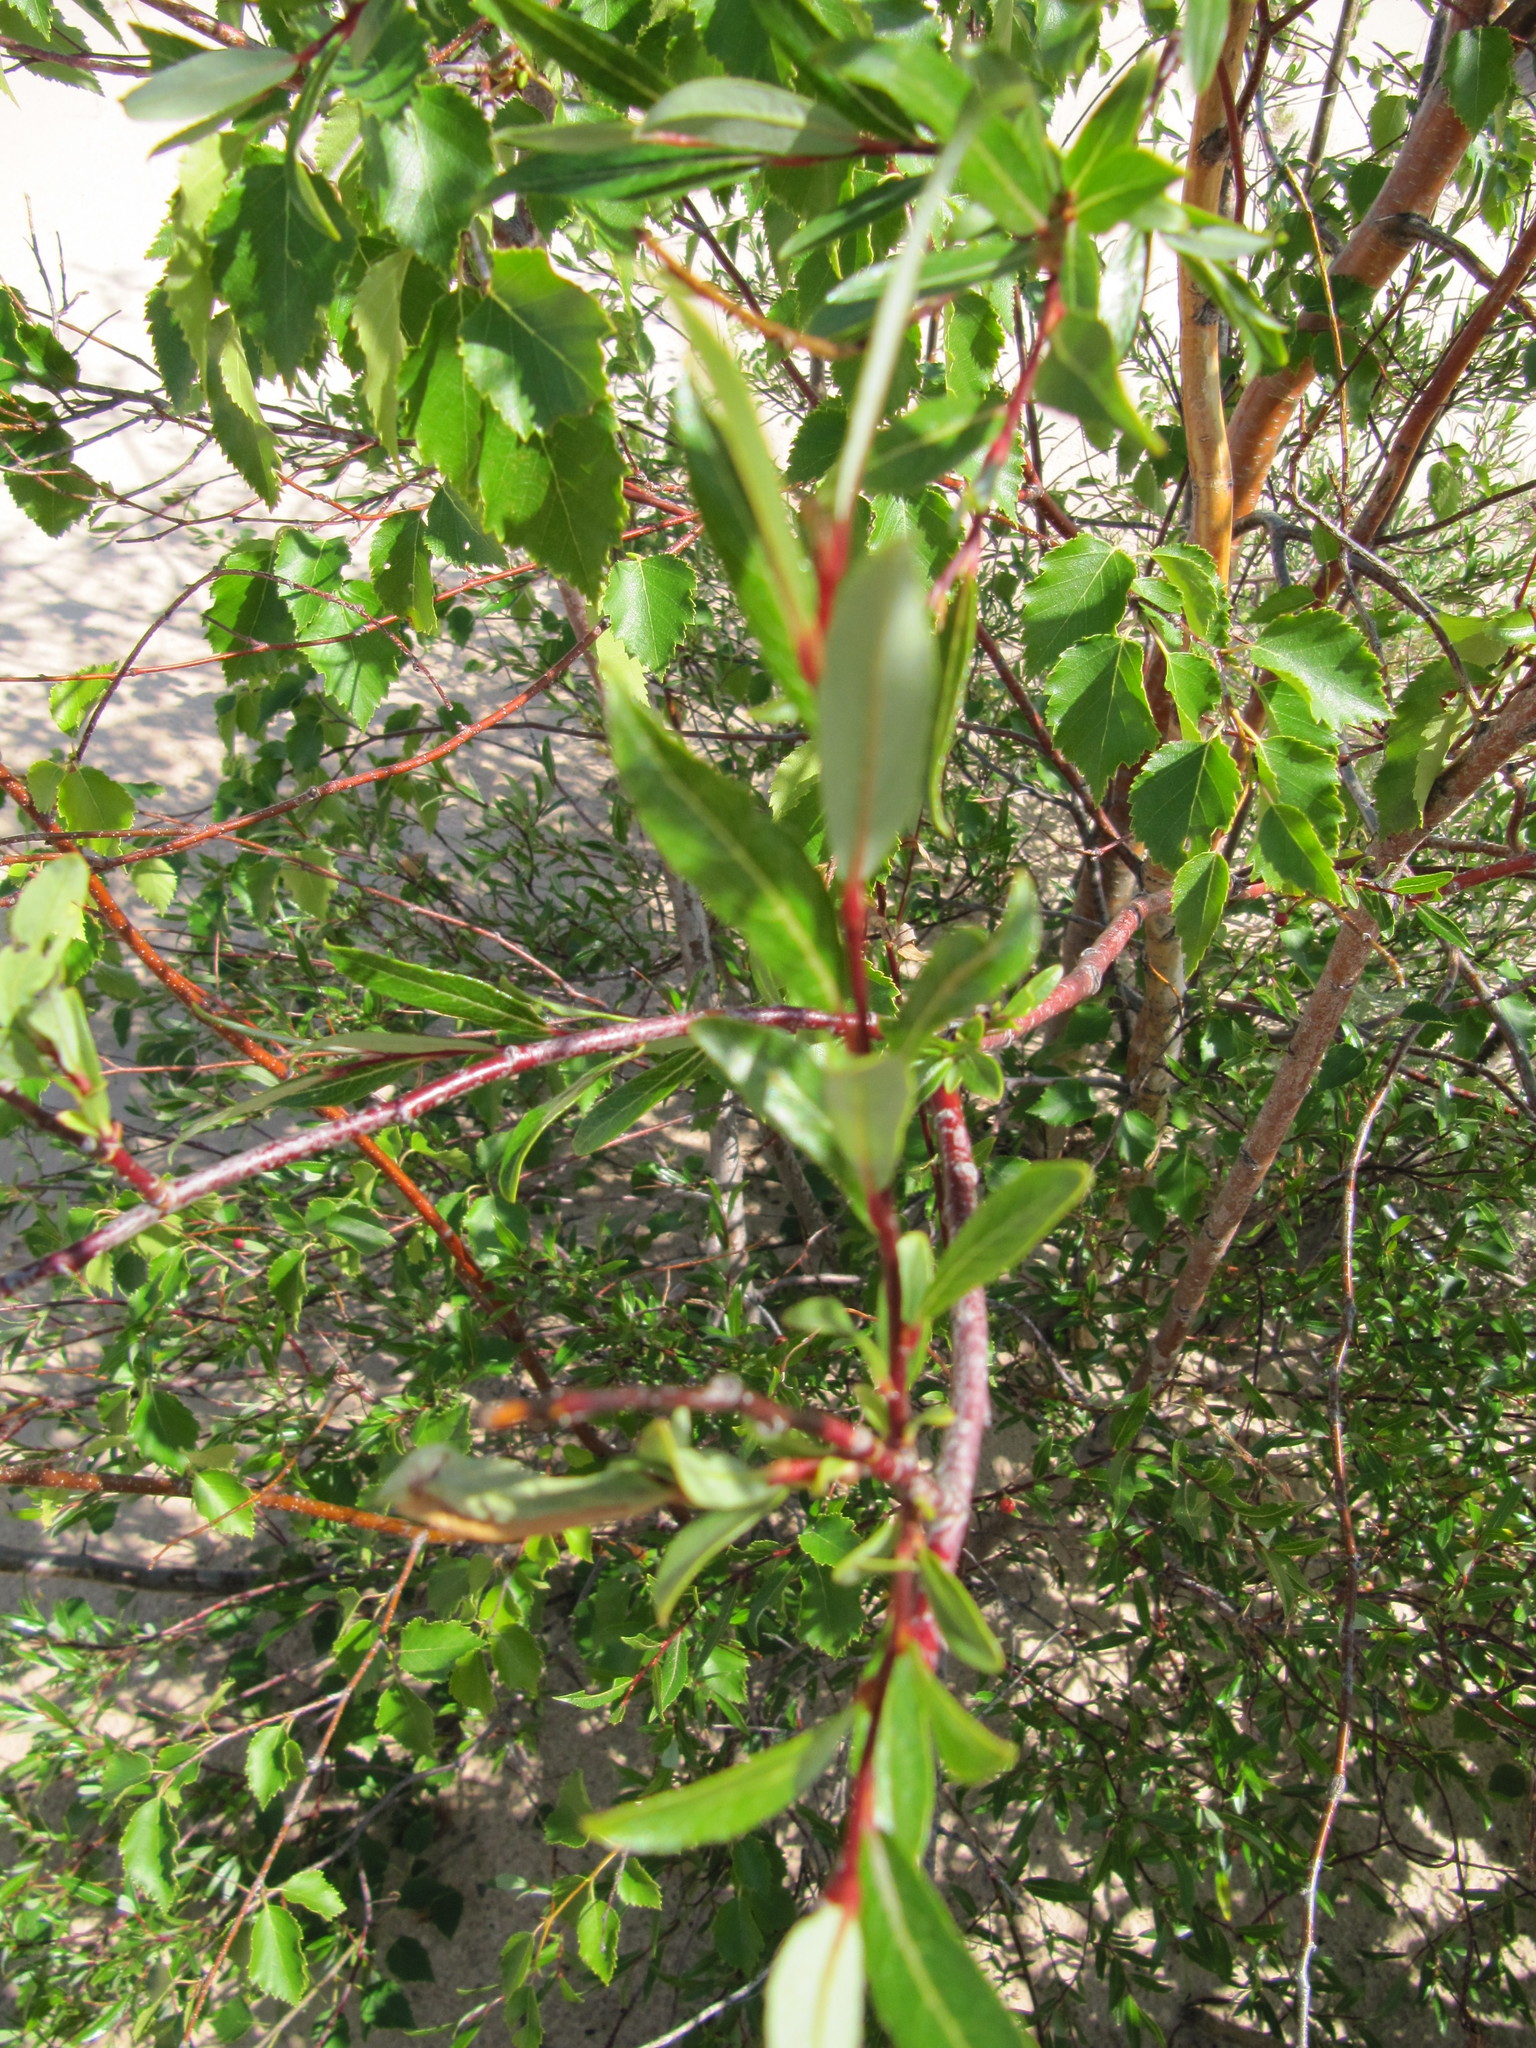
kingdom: Plantae
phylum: Tracheophyta
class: Magnoliopsida
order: Malpighiales
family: Salicaceae
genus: Salix
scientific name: Salix tyrrellii
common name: Tyrrell's willow
